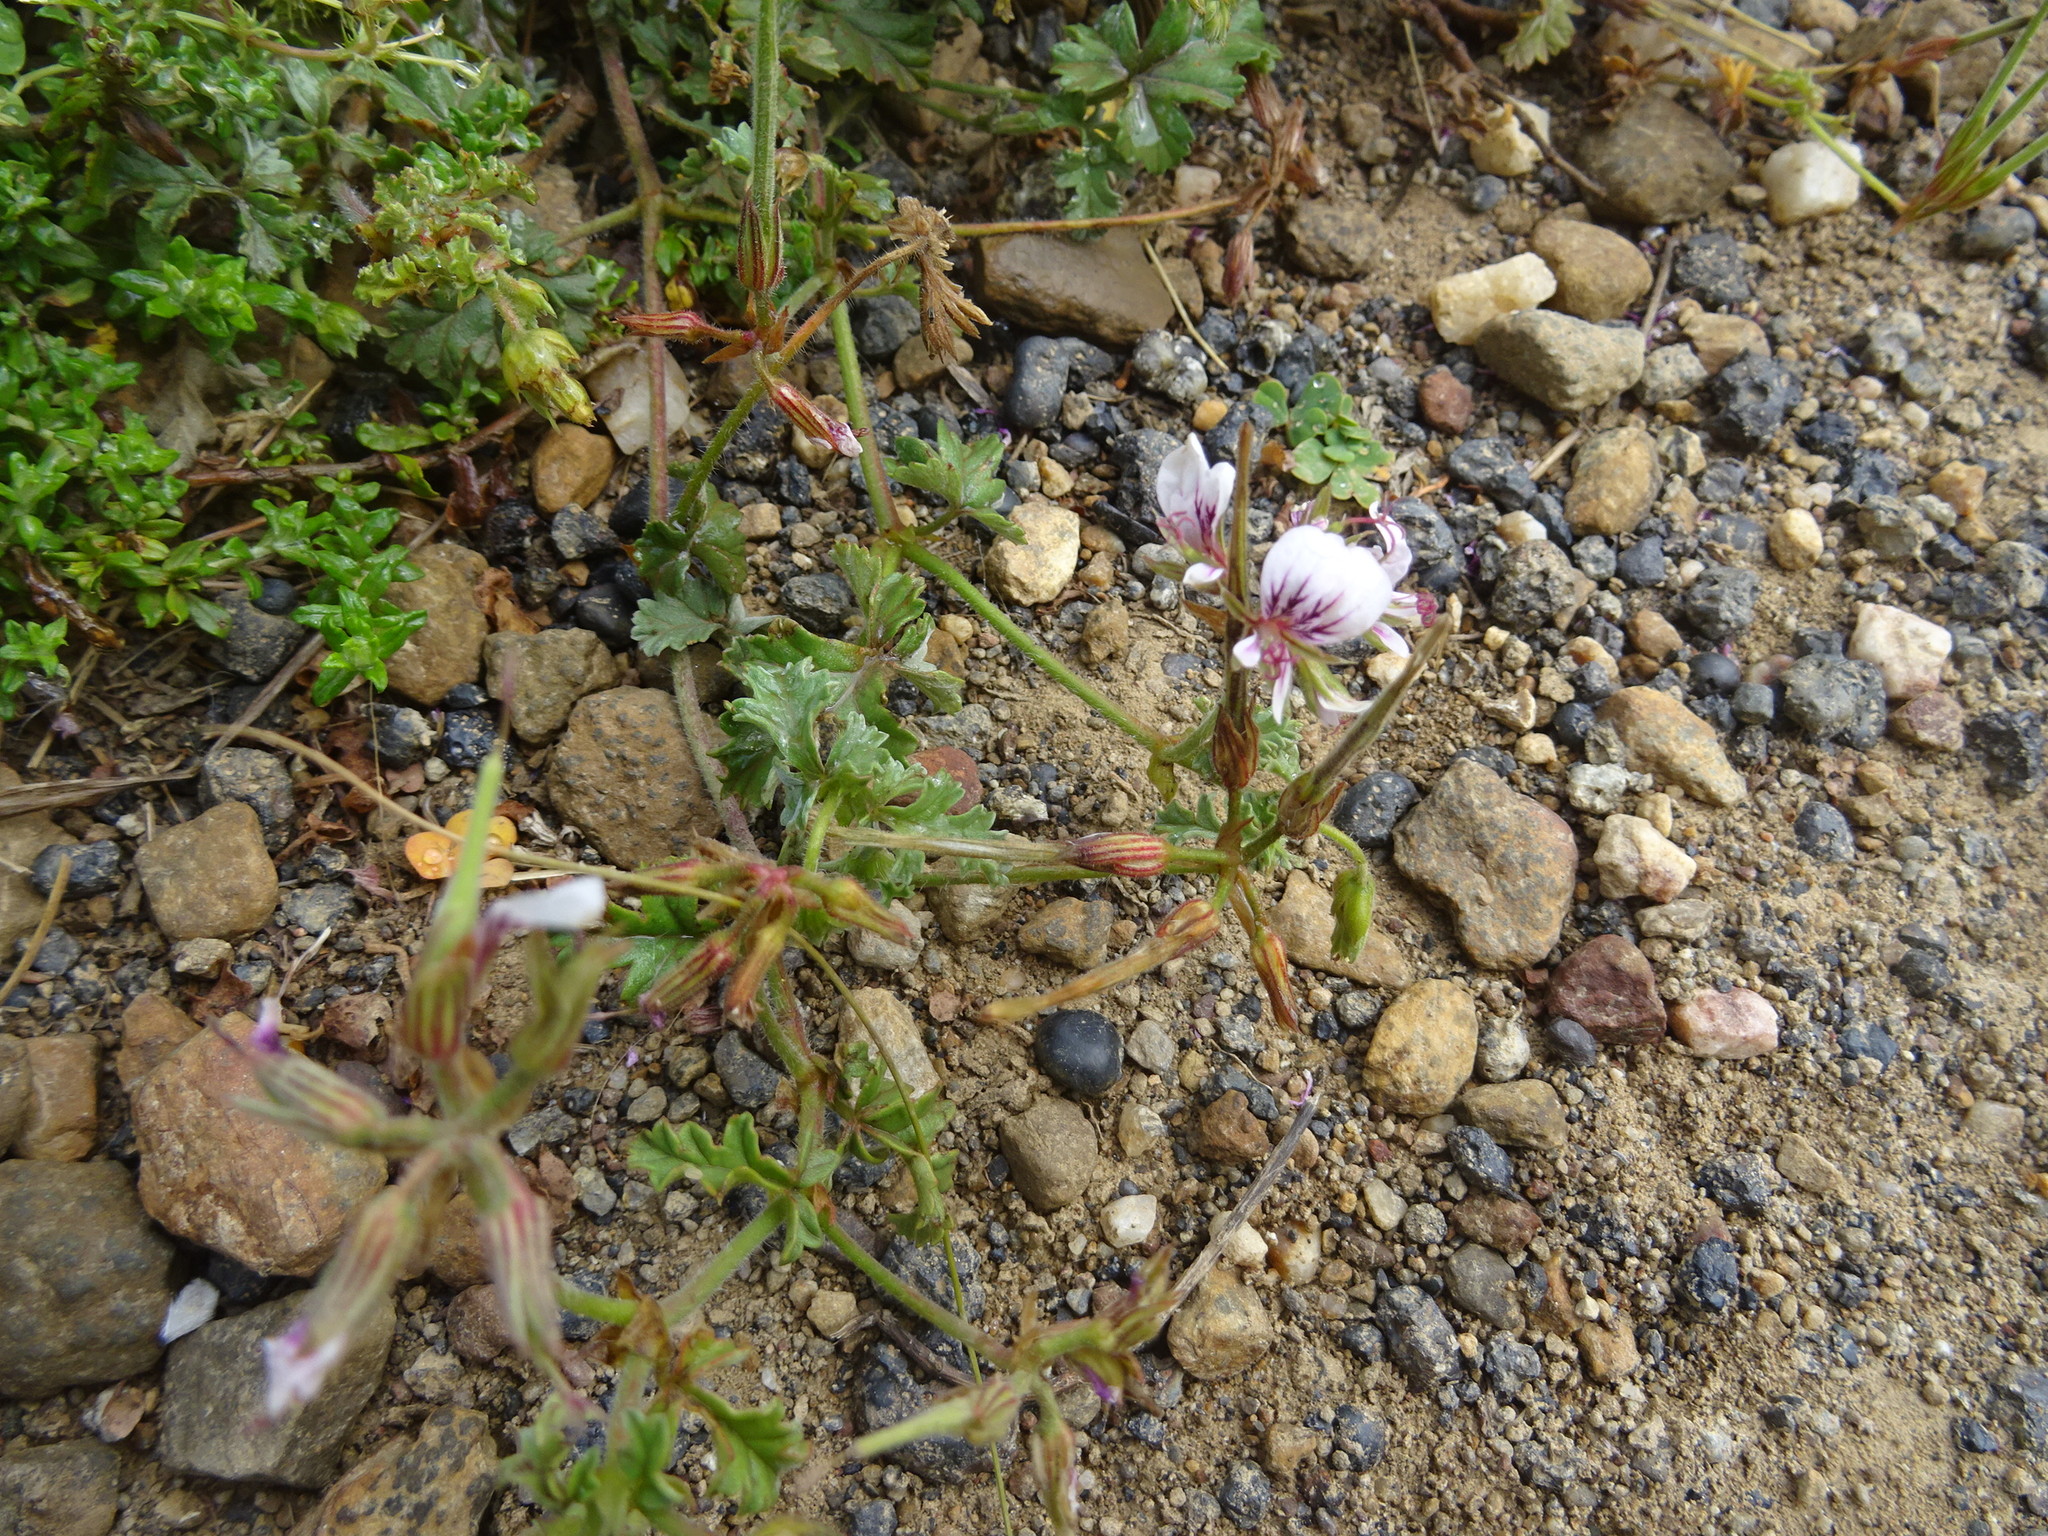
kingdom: Plantae
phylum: Tracheophyta
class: Magnoliopsida
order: Geraniales
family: Geraniaceae
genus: Pelargonium
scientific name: Pelargonium longicaule
